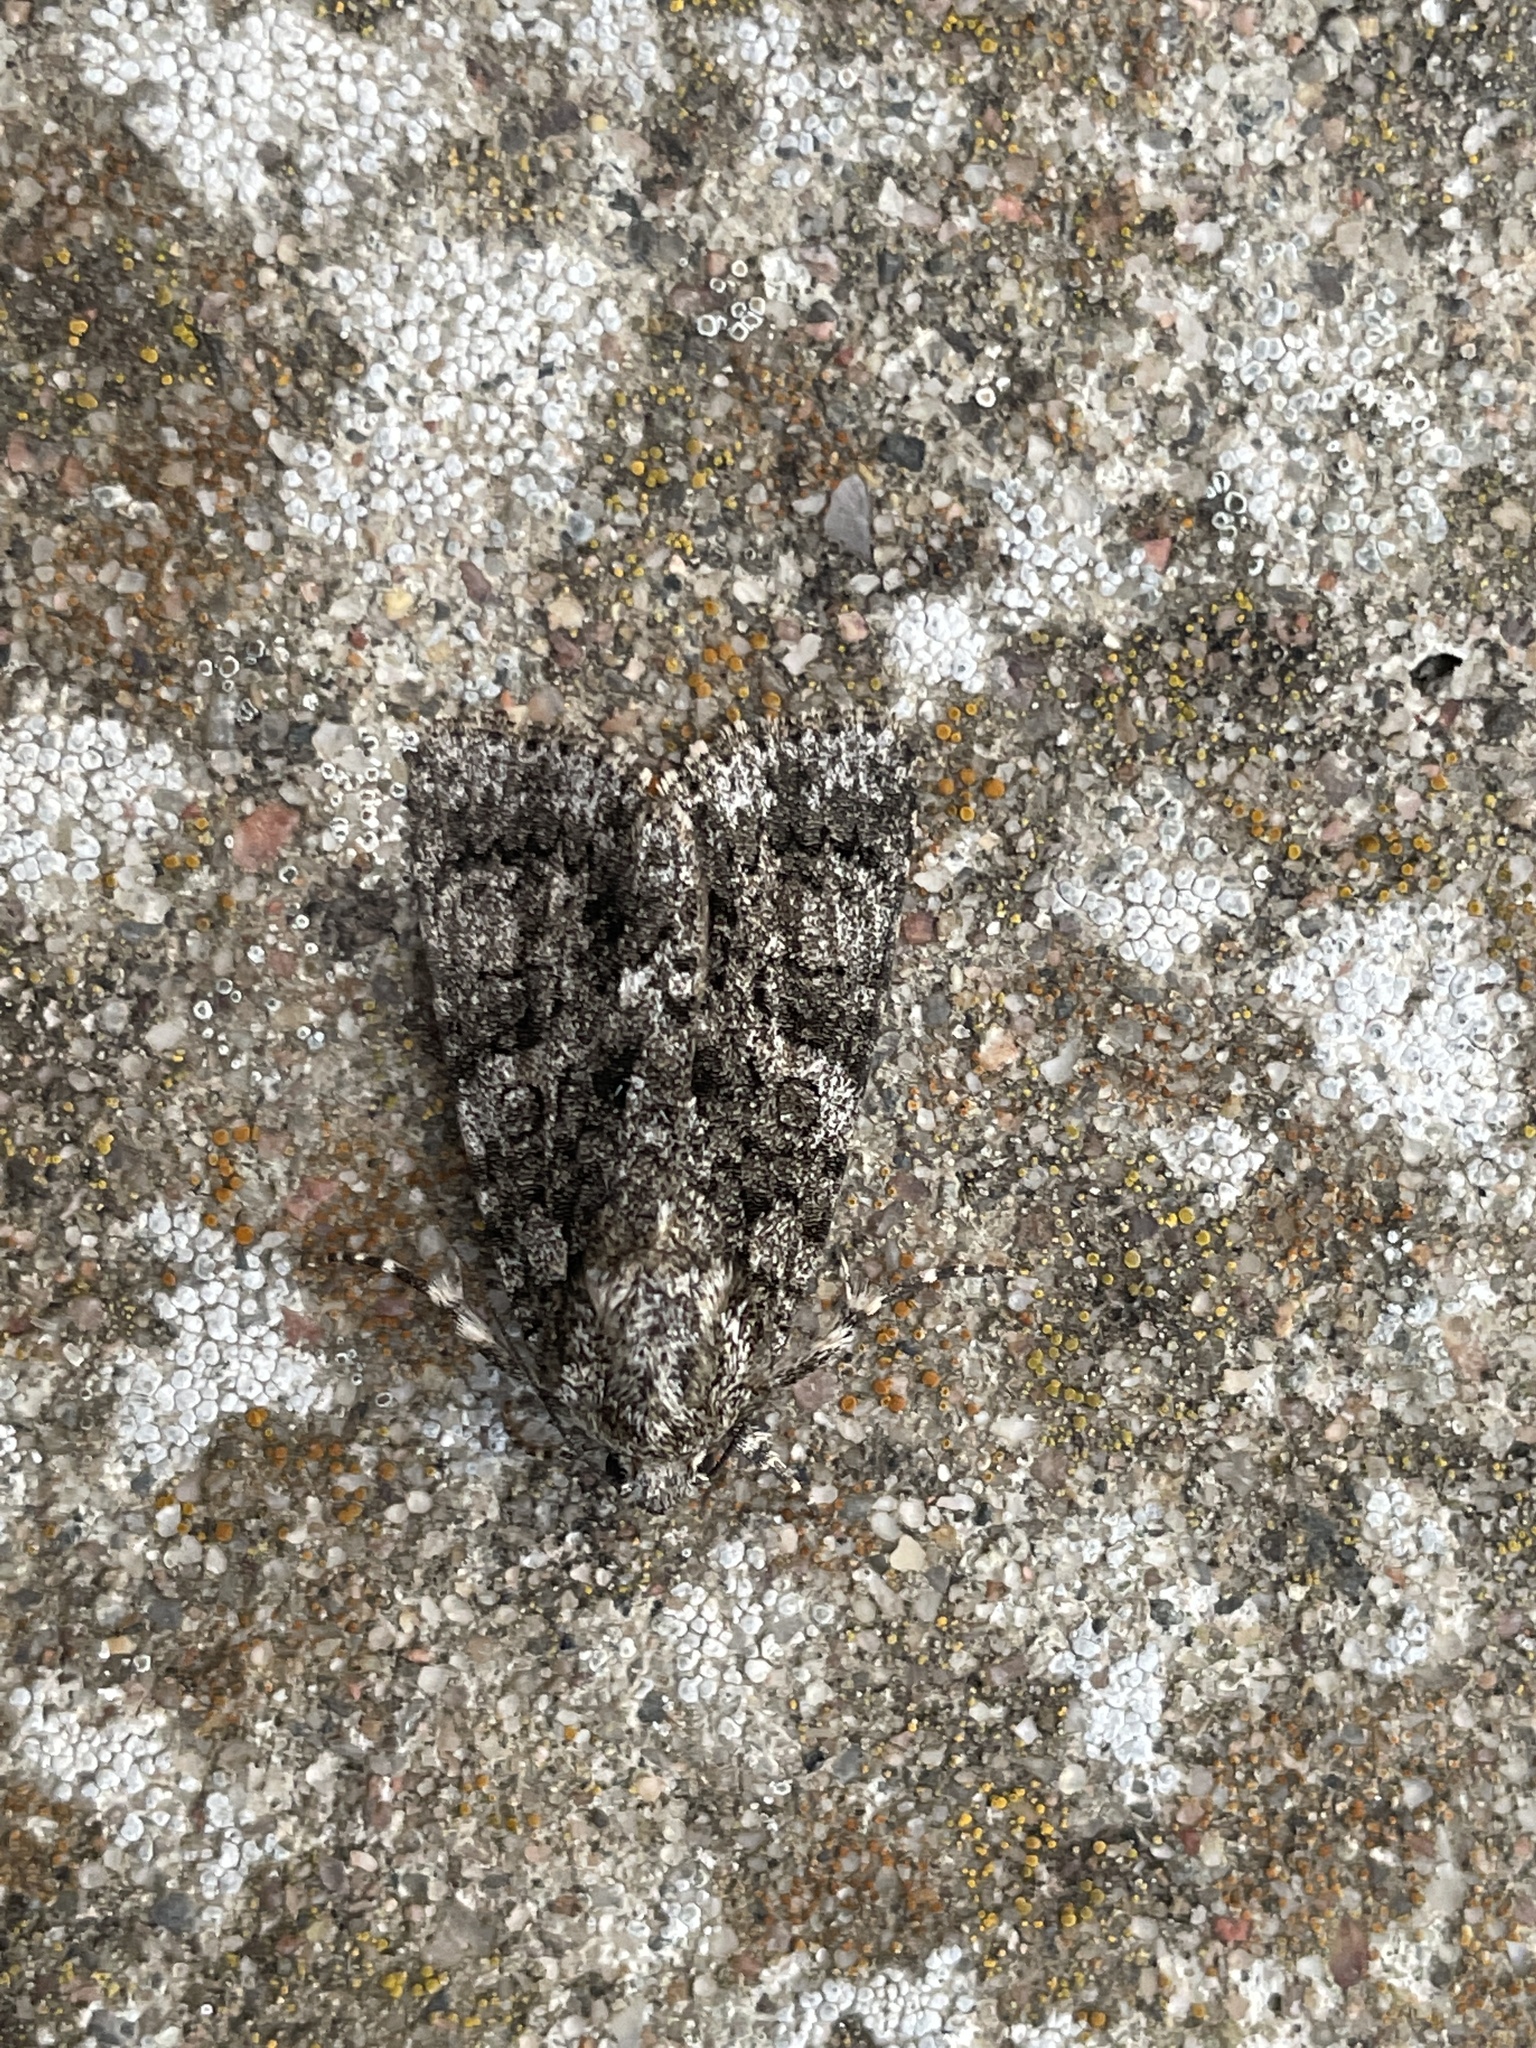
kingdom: Animalia
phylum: Arthropoda
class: Insecta
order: Lepidoptera
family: Noctuidae
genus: Acronicta
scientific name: Acronicta rumicis
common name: Knot grass
